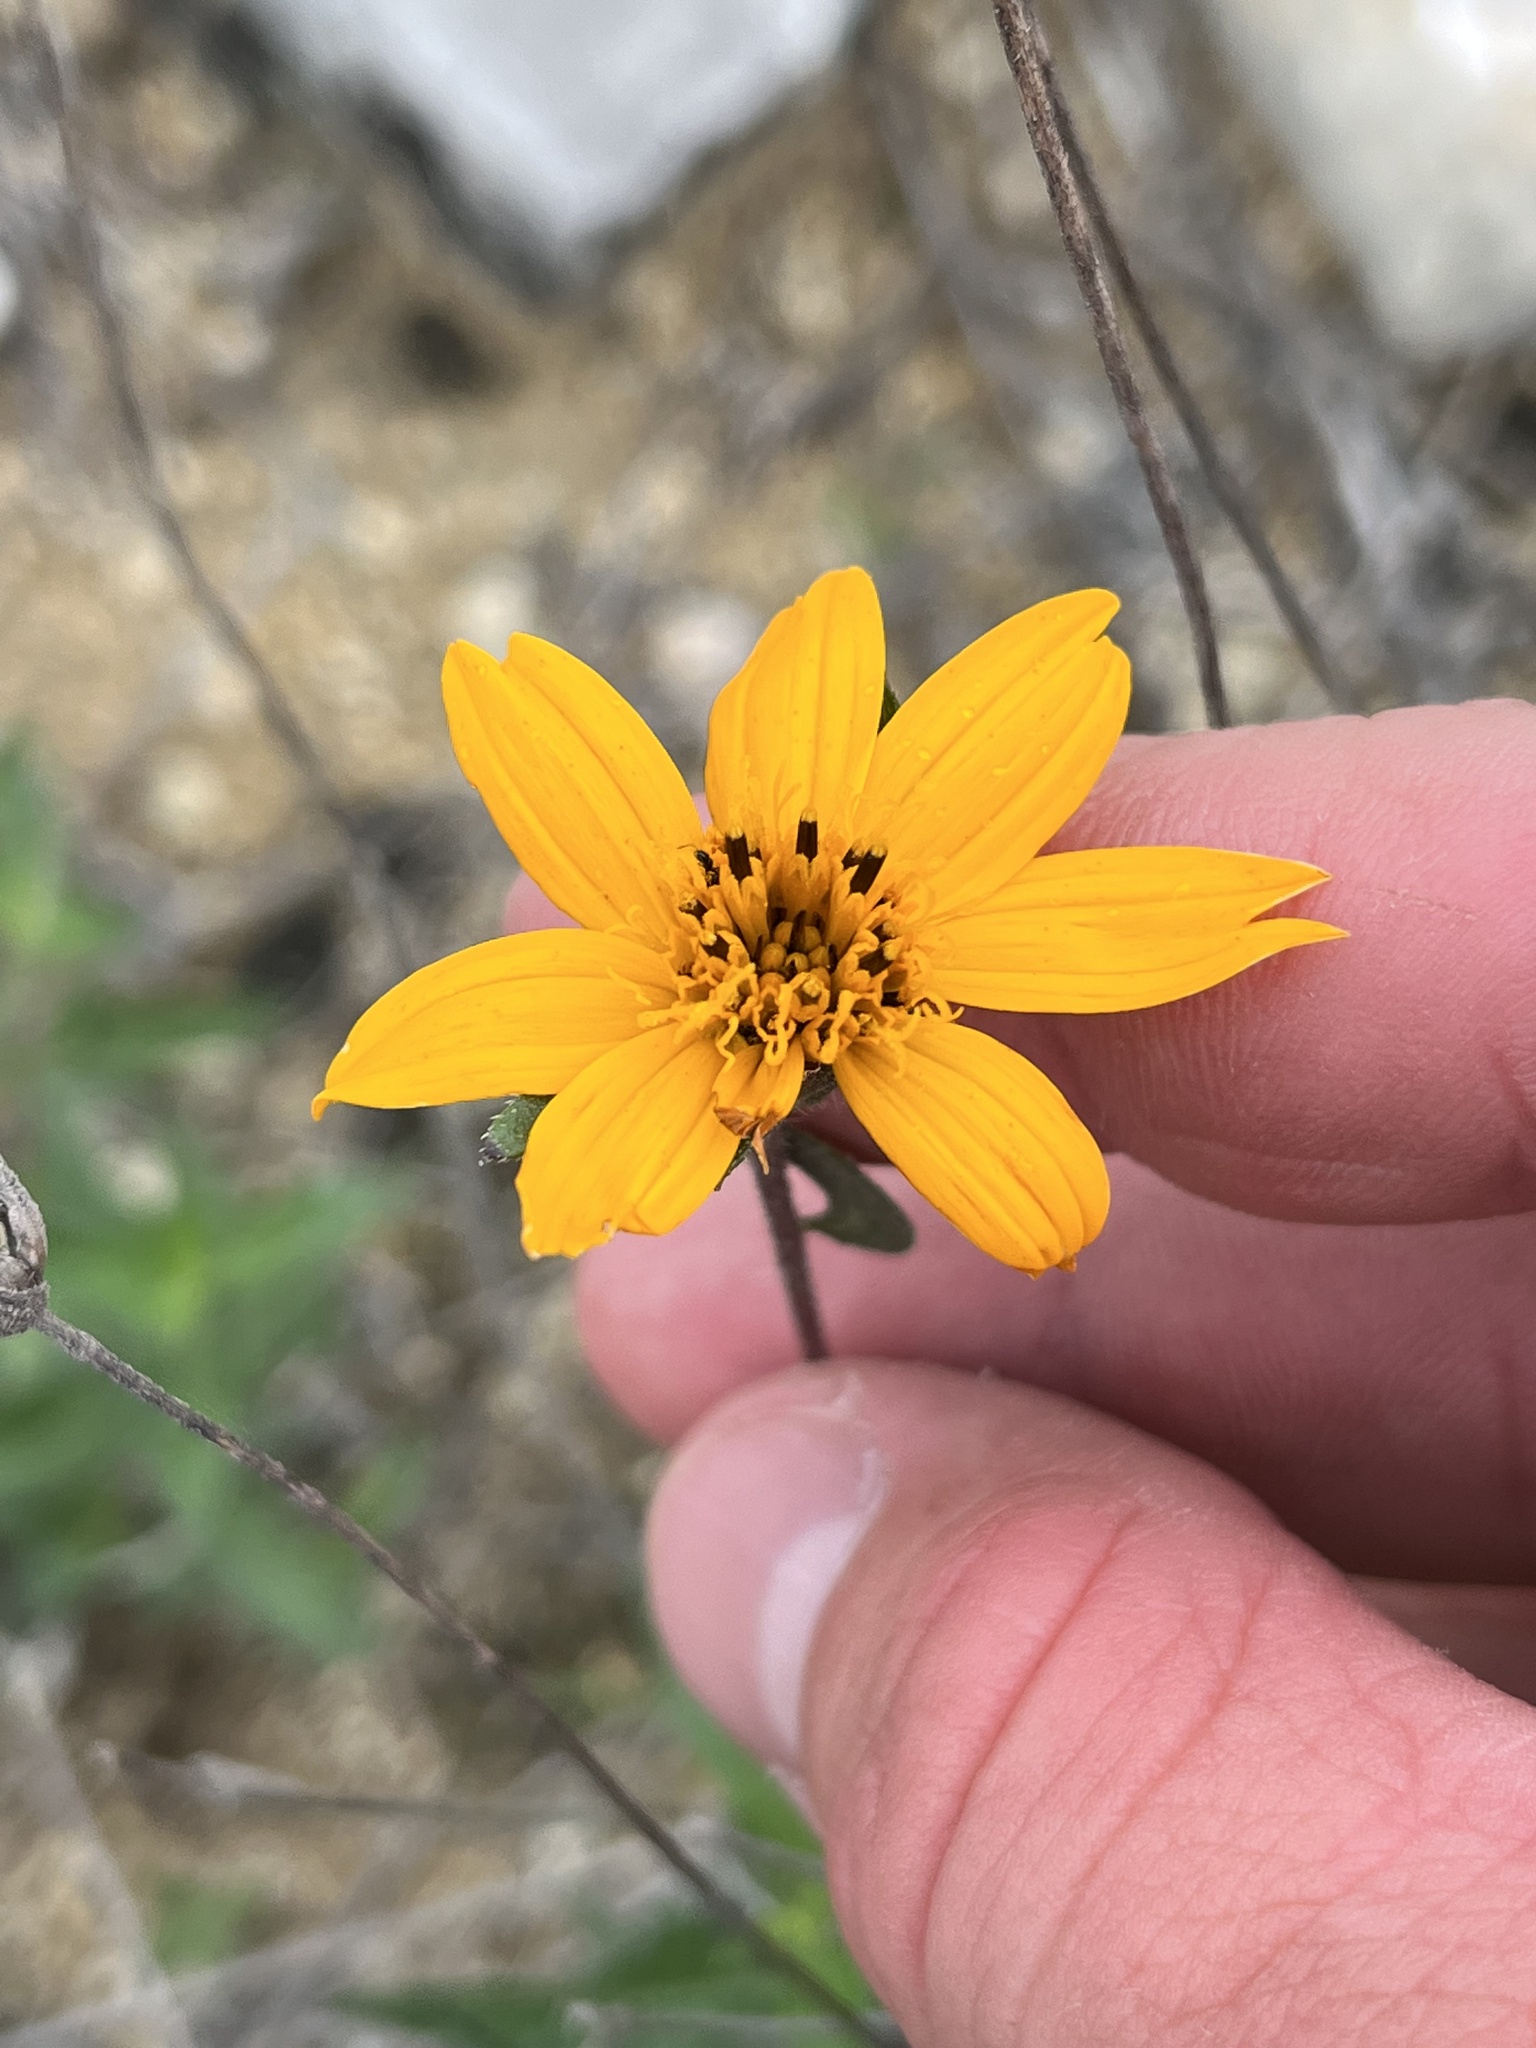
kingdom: Plantae
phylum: Tracheophyta
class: Magnoliopsida
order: Asterales
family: Asteraceae
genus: Wedelia
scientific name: Wedelia acapulcensis
